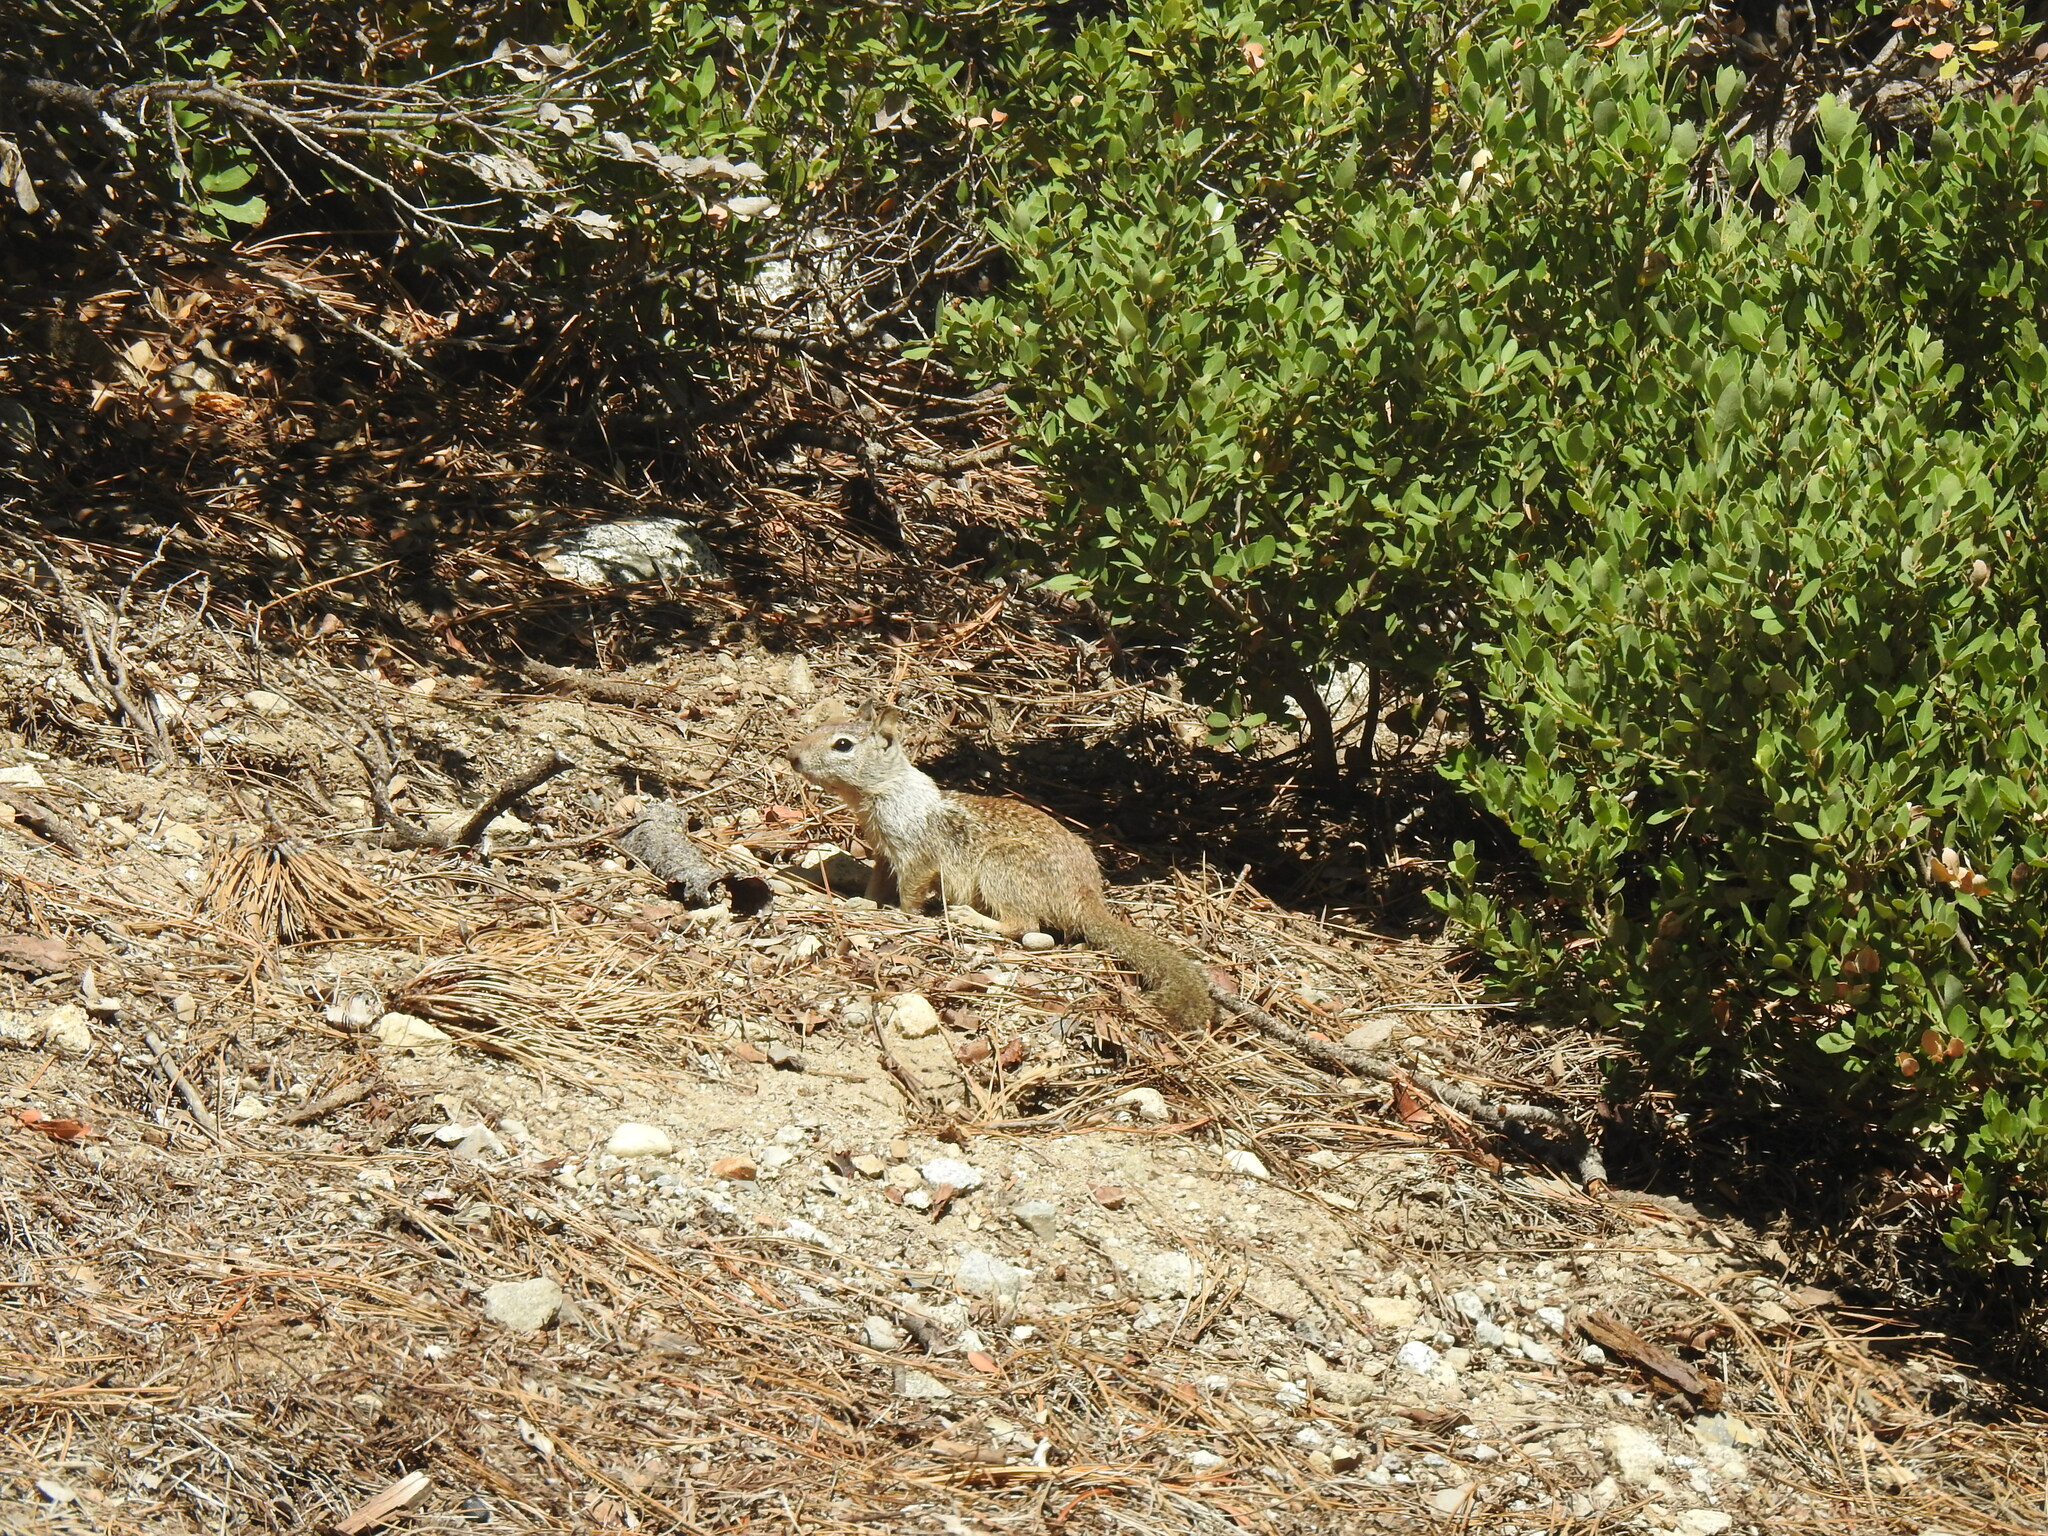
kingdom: Animalia
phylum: Chordata
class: Mammalia
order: Rodentia
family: Sciuridae
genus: Otospermophilus
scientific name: Otospermophilus beecheyi
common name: California ground squirrel
